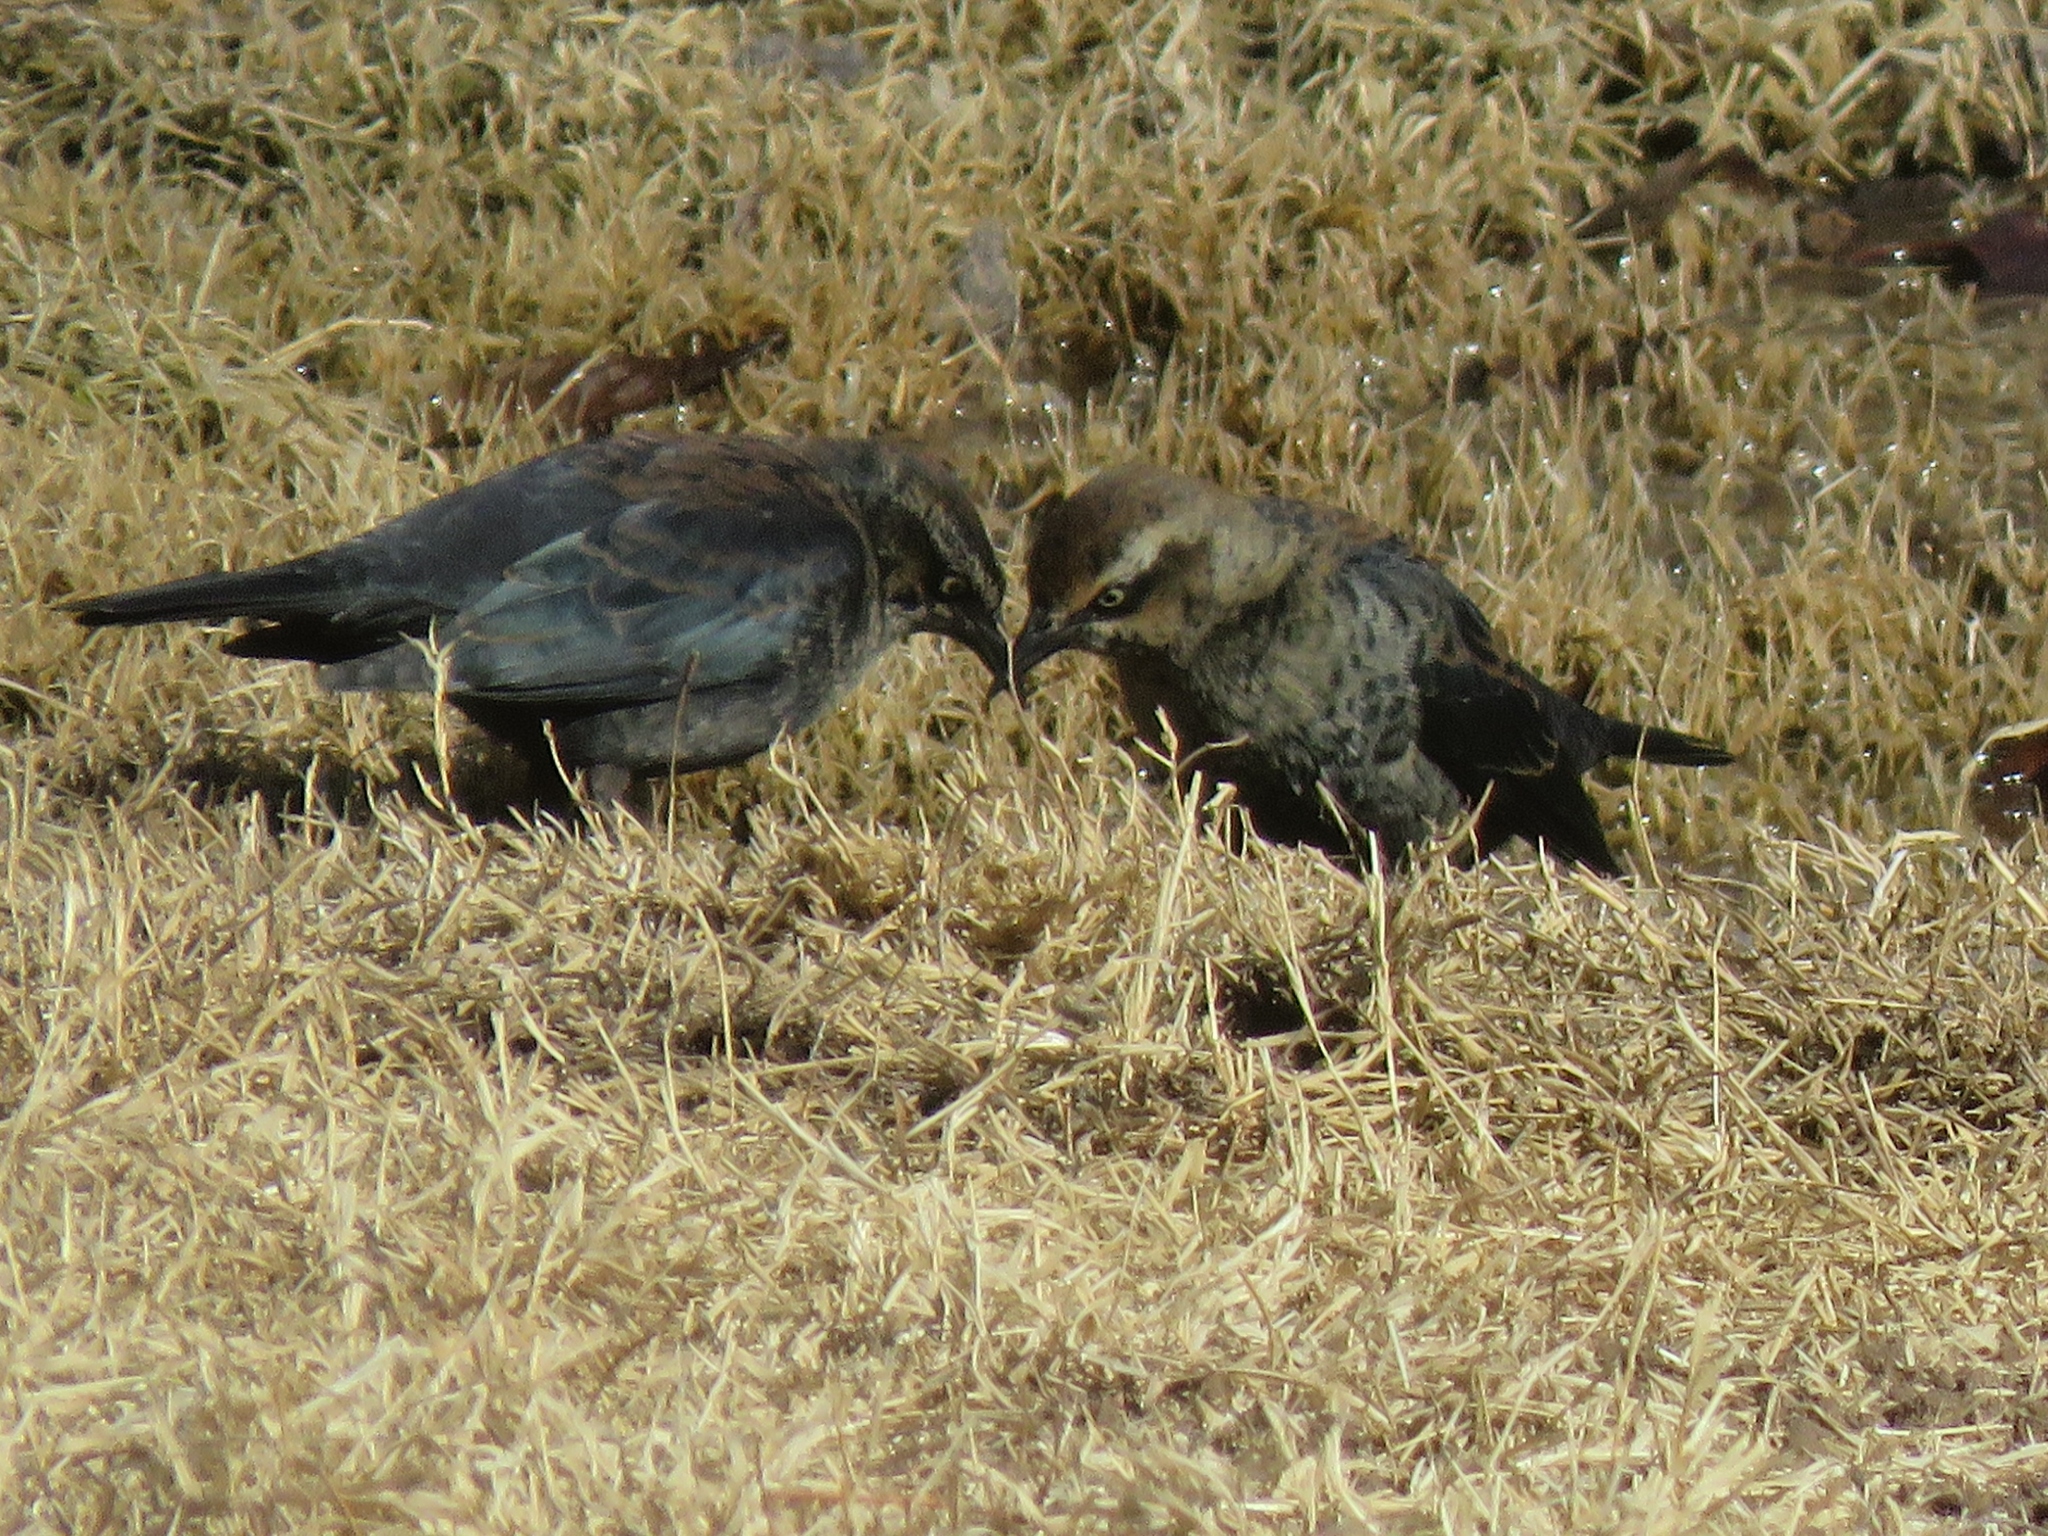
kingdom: Animalia
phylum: Chordata
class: Aves
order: Passeriformes
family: Icteridae
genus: Euphagus
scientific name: Euphagus carolinus
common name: Rusty blackbird
